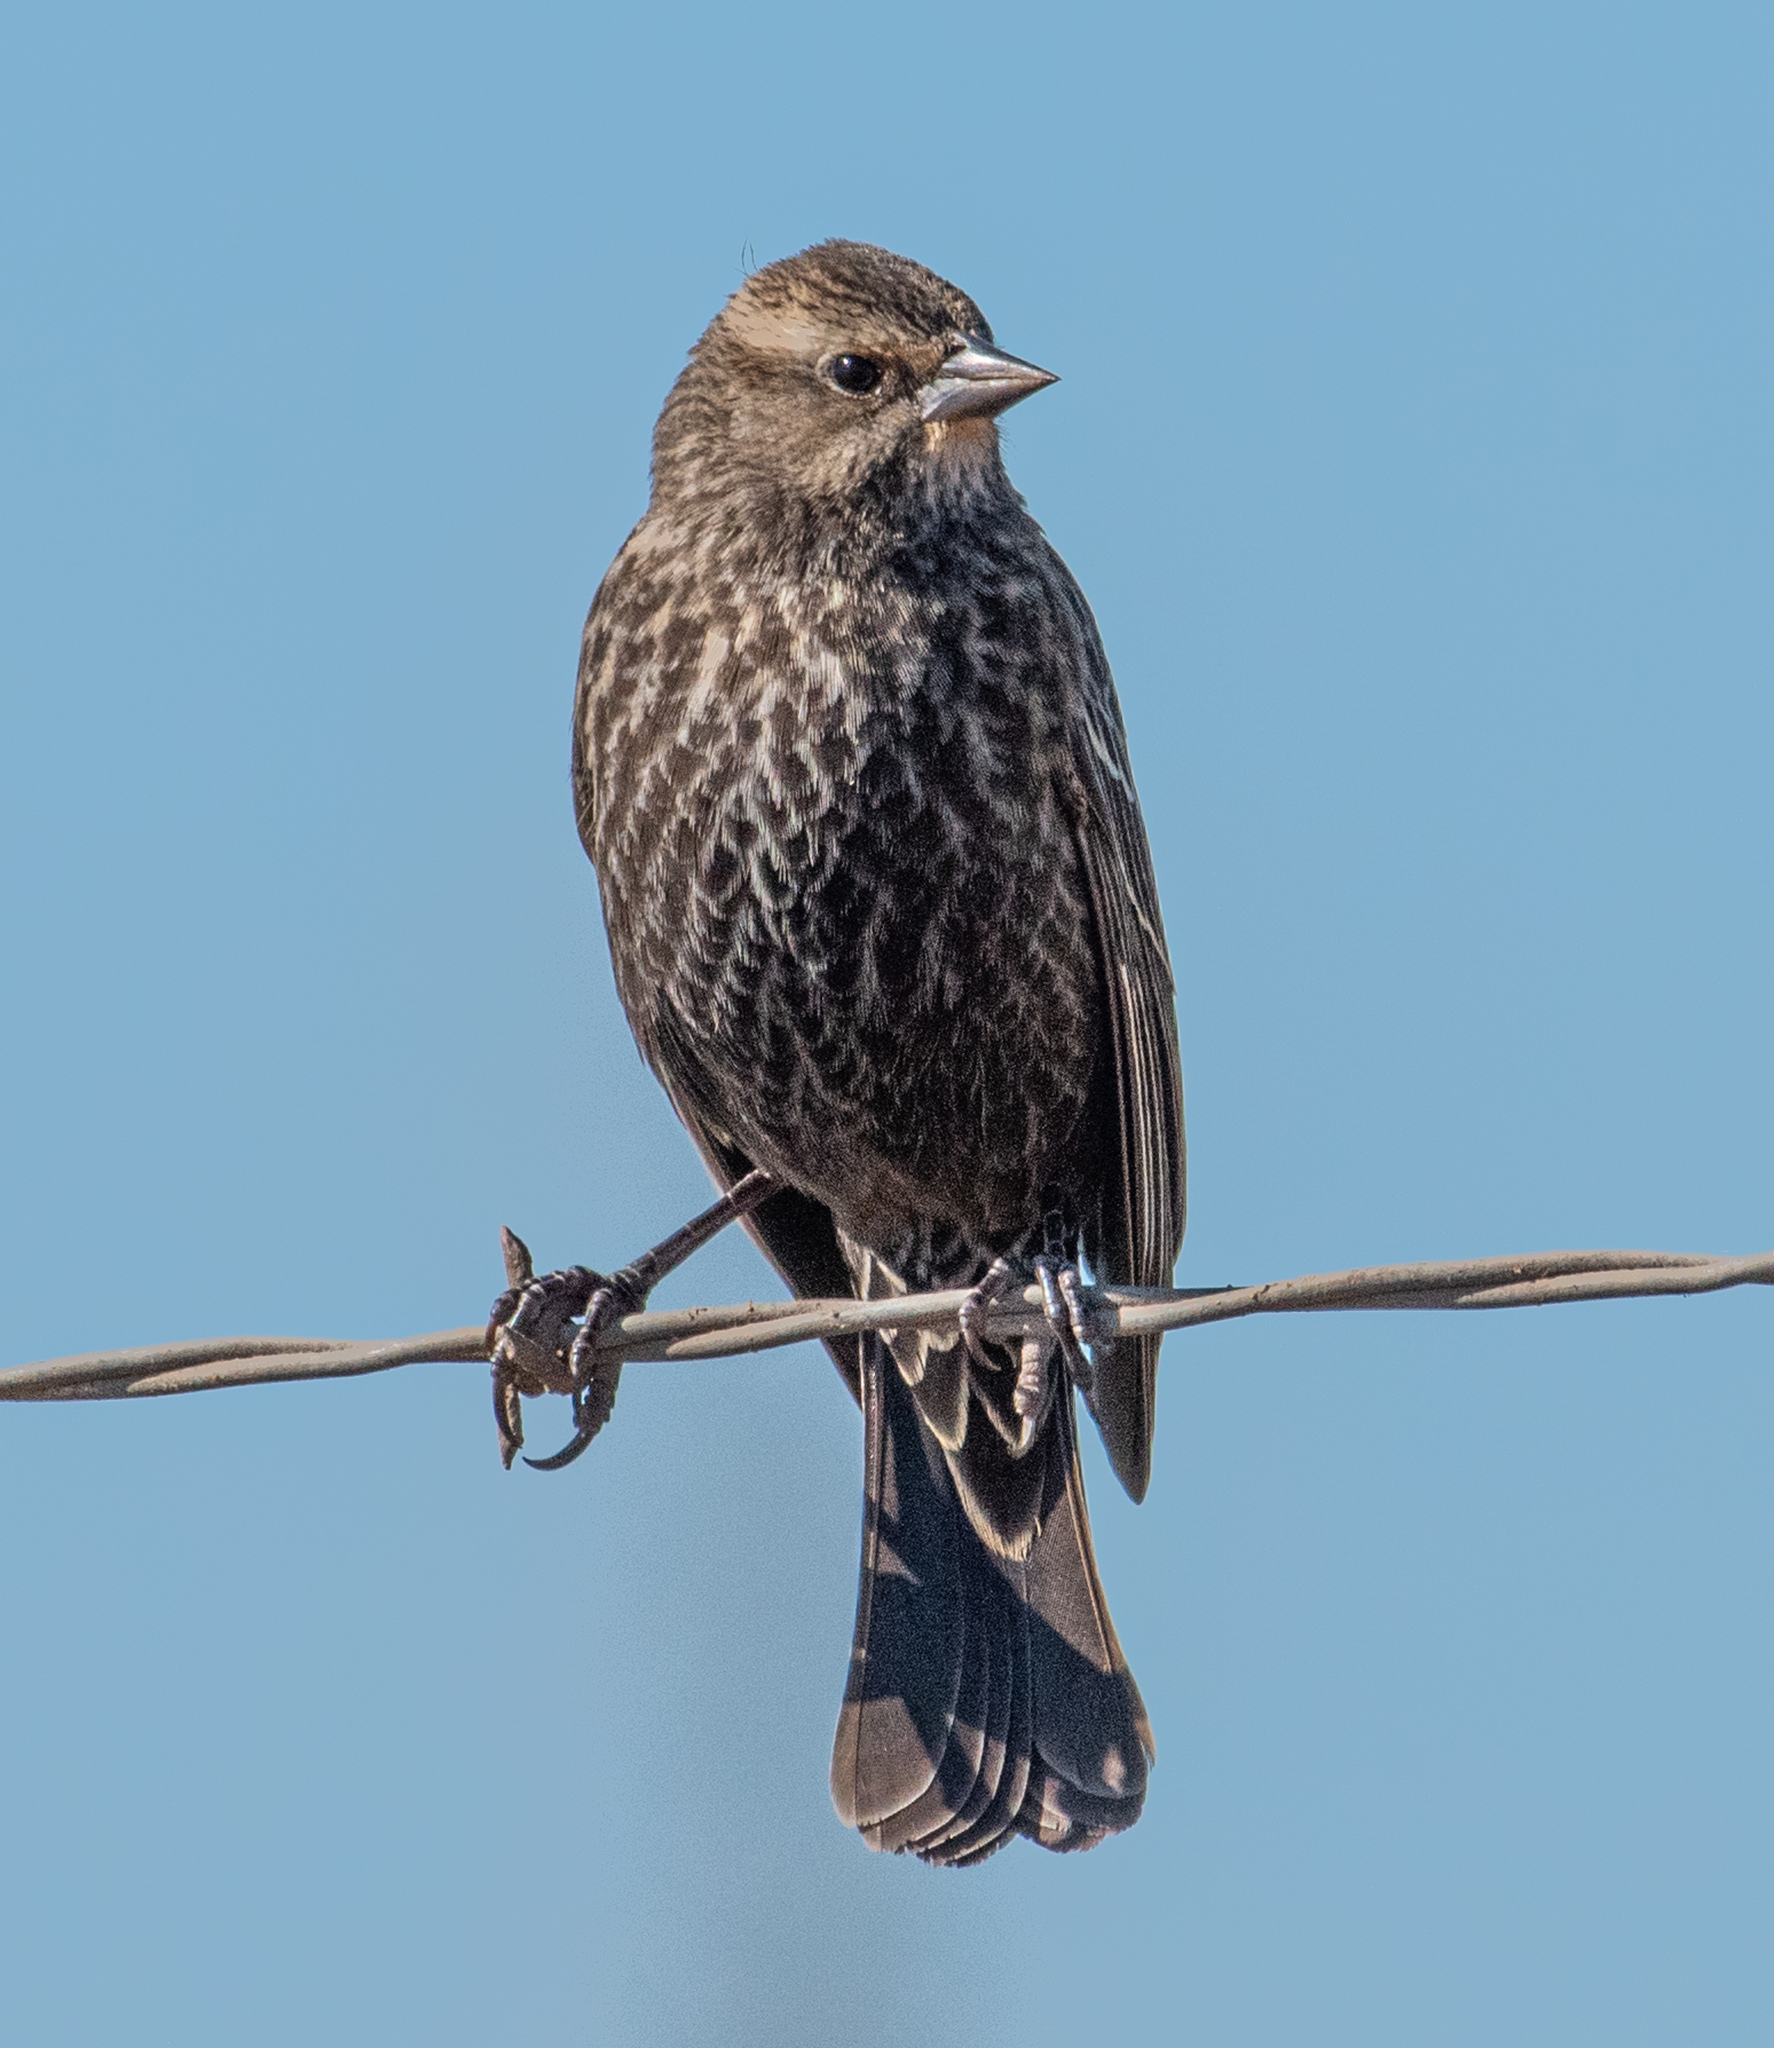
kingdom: Animalia
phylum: Chordata
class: Aves
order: Passeriformes
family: Icteridae
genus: Agelaius
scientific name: Agelaius phoeniceus
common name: Red-winged blackbird
